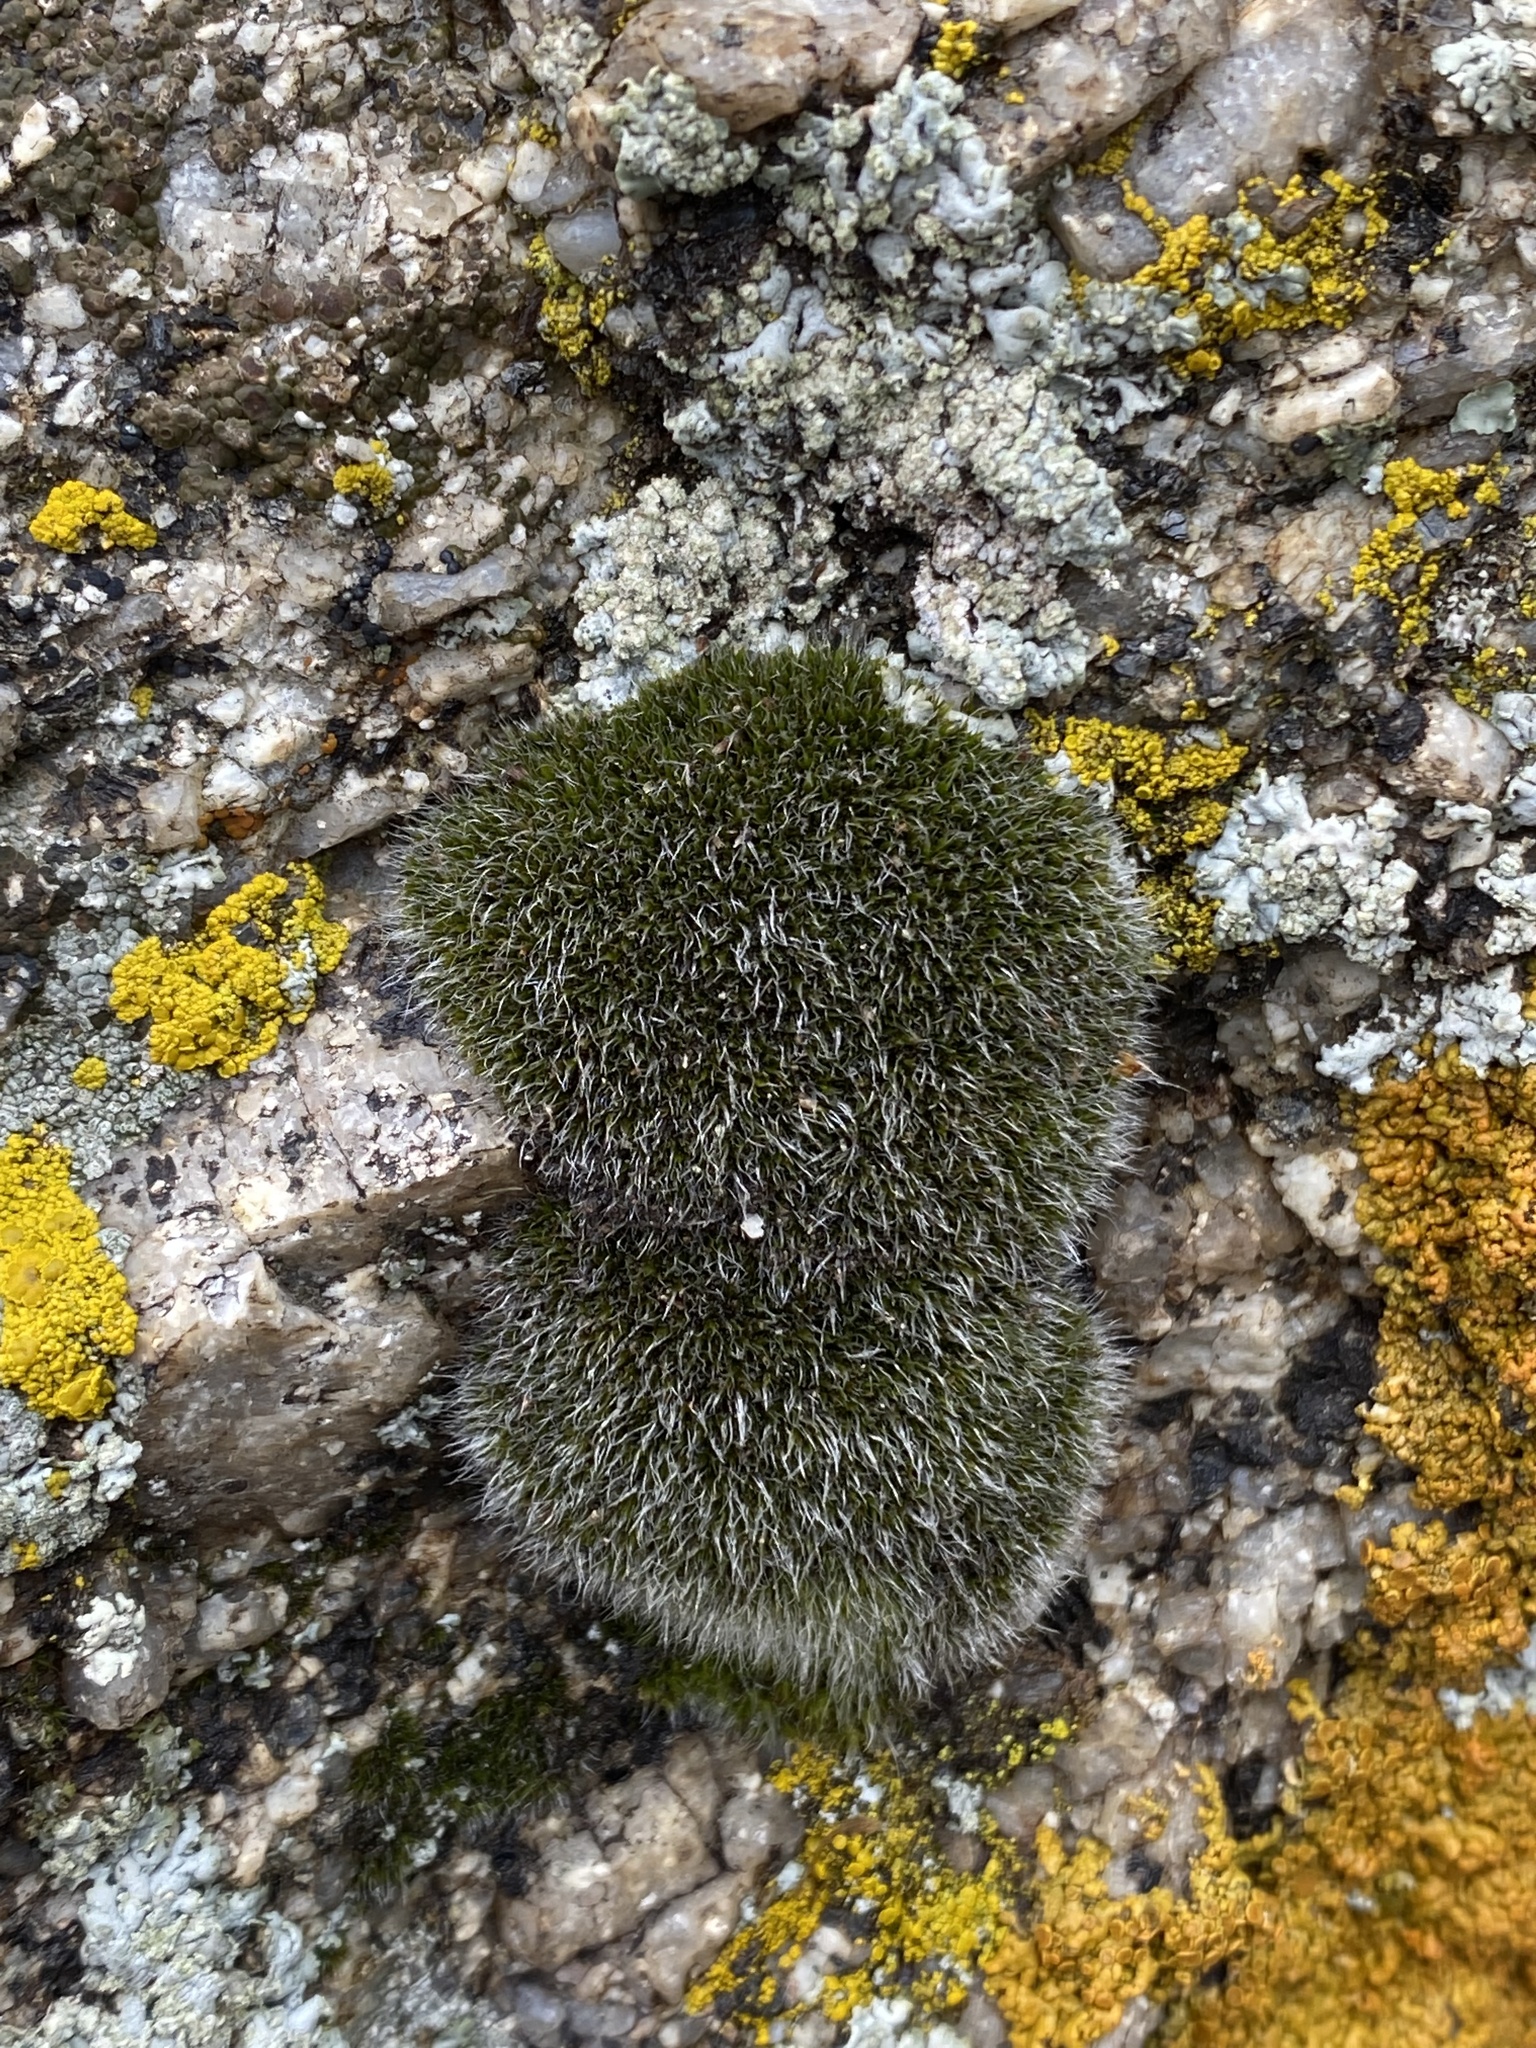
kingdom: Plantae
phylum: Bryophyta
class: Bryopsida
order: Grimmiales
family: Grimmiaceae
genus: Grimmia
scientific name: Grimmia
